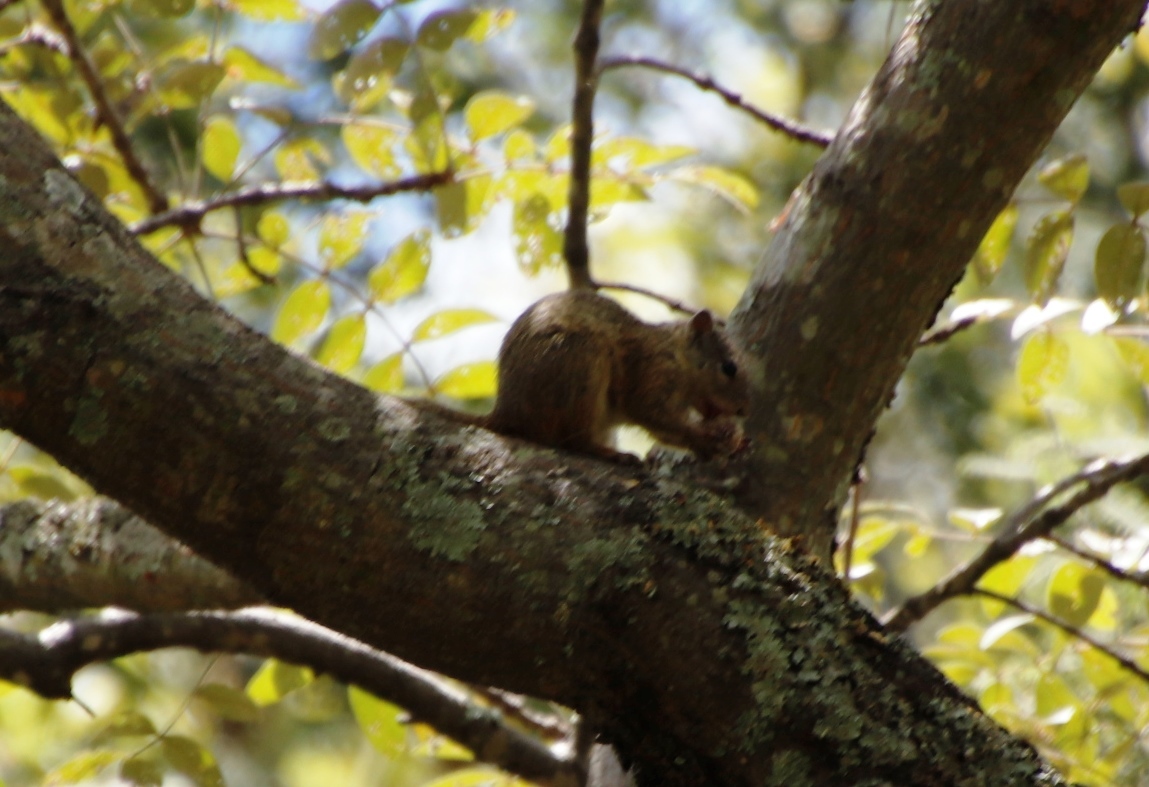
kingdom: Animalia
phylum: Chordata
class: Mammalia
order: Rodentia
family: Sciuridae
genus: Paraxerus
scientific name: Paraxerus cepapi
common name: Smith's bush squirrel
